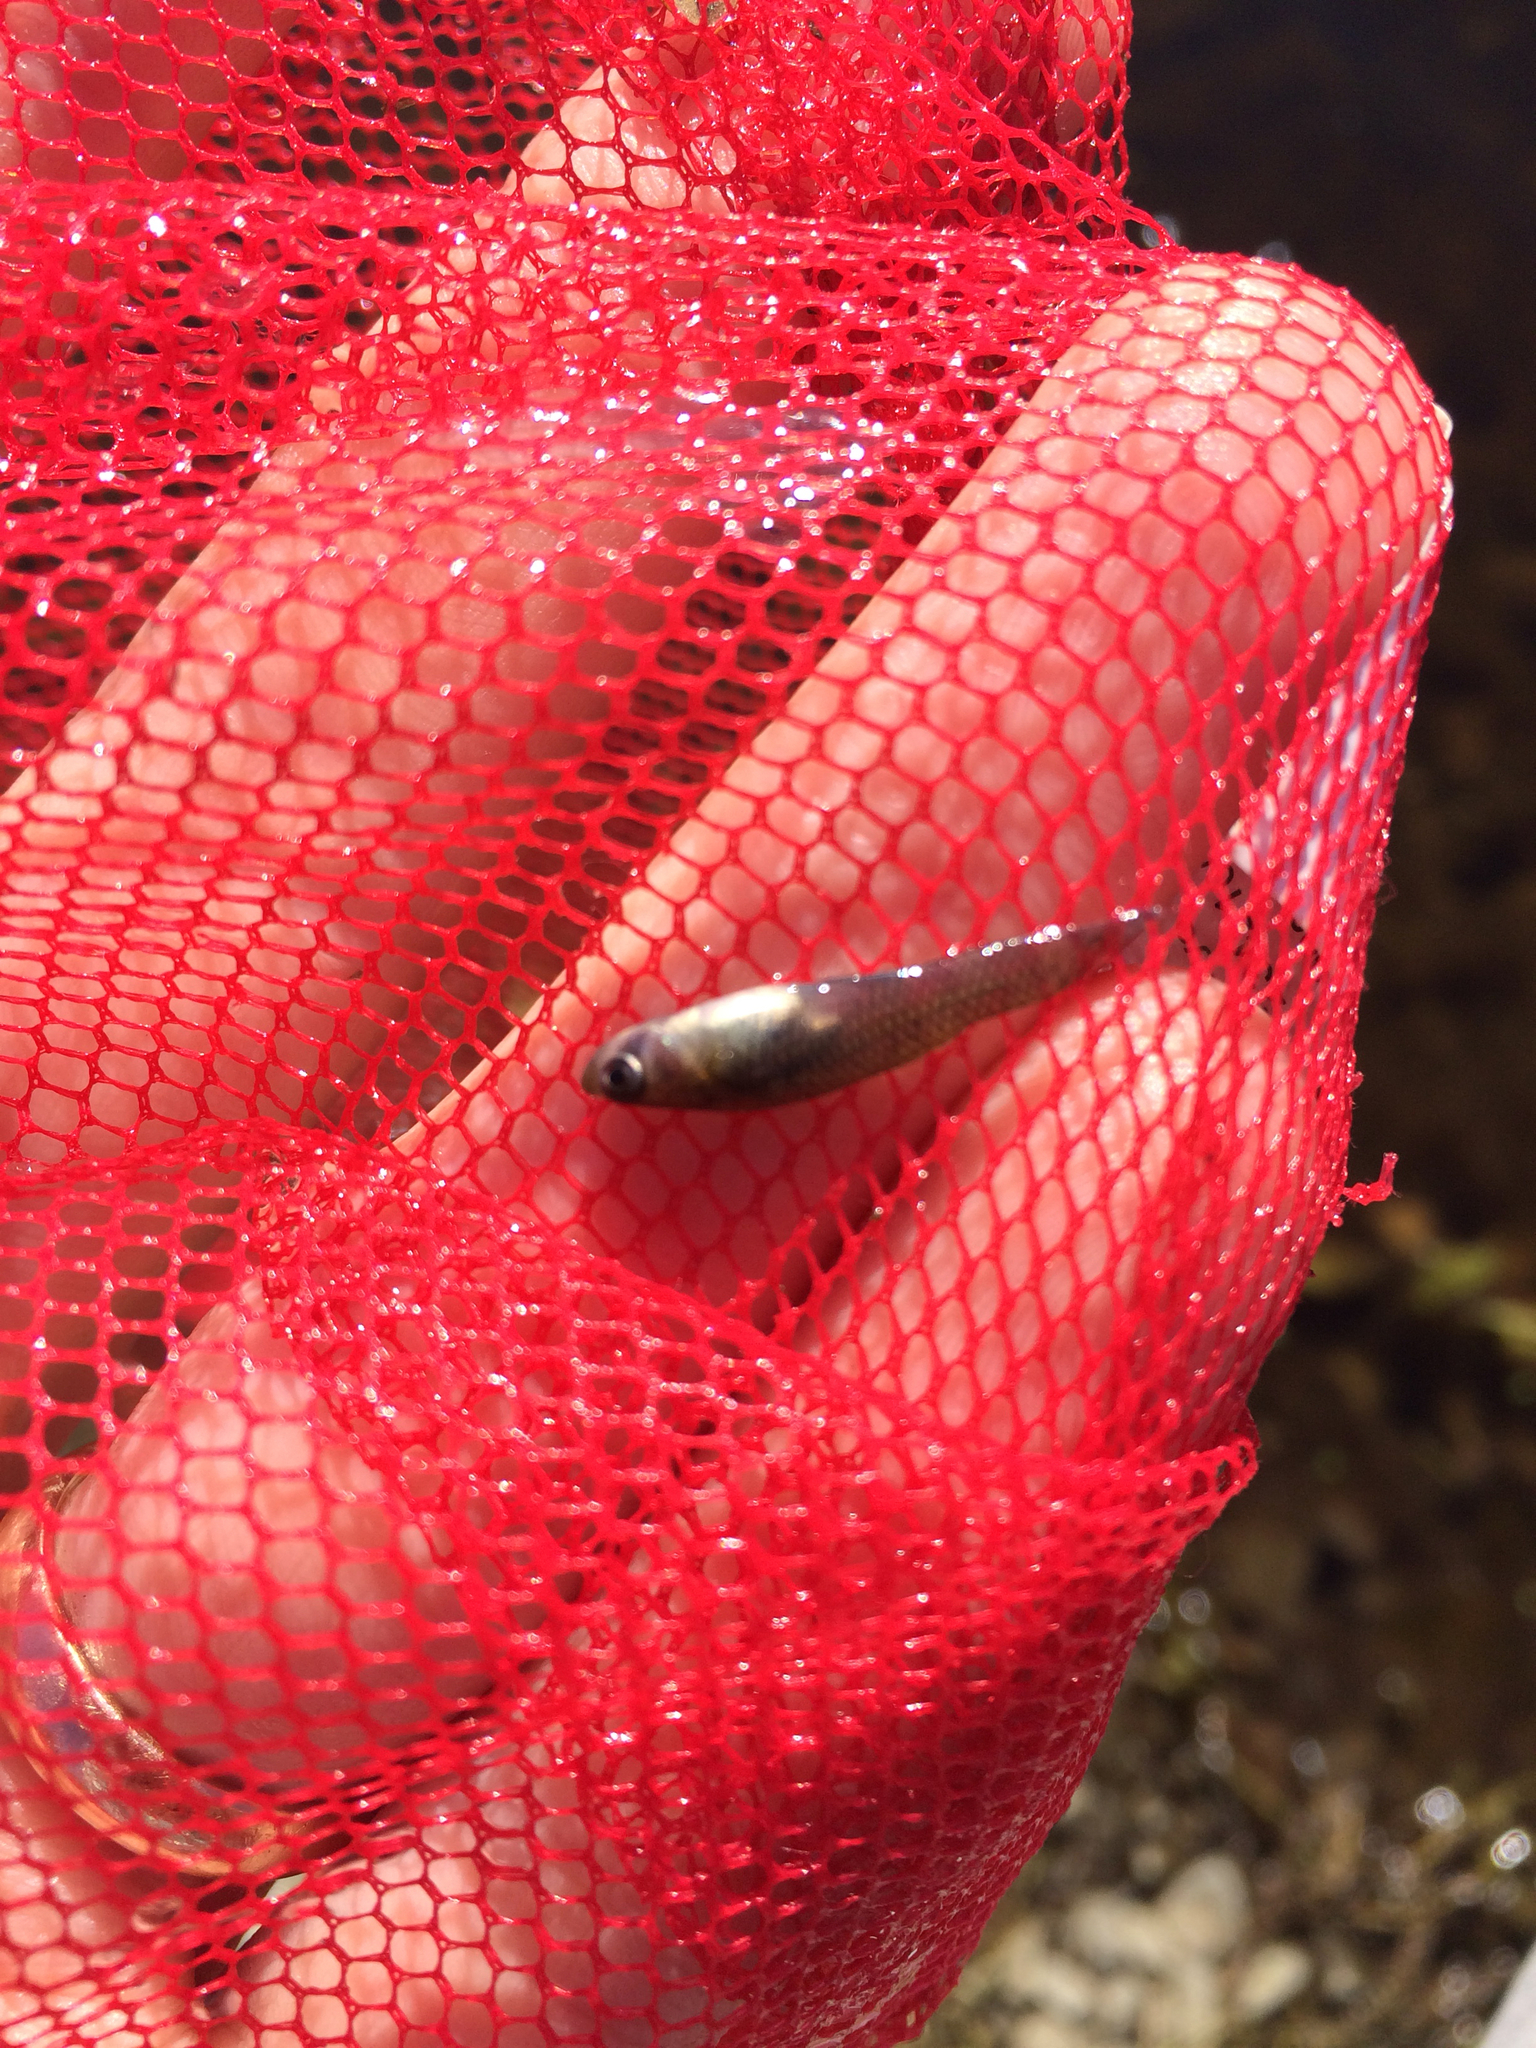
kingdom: Animalia
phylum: Chordata
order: Cyprinodontiformes
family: Poeciliidae
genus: Gambusia
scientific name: Gambusia affinis
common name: Mosquitofish
